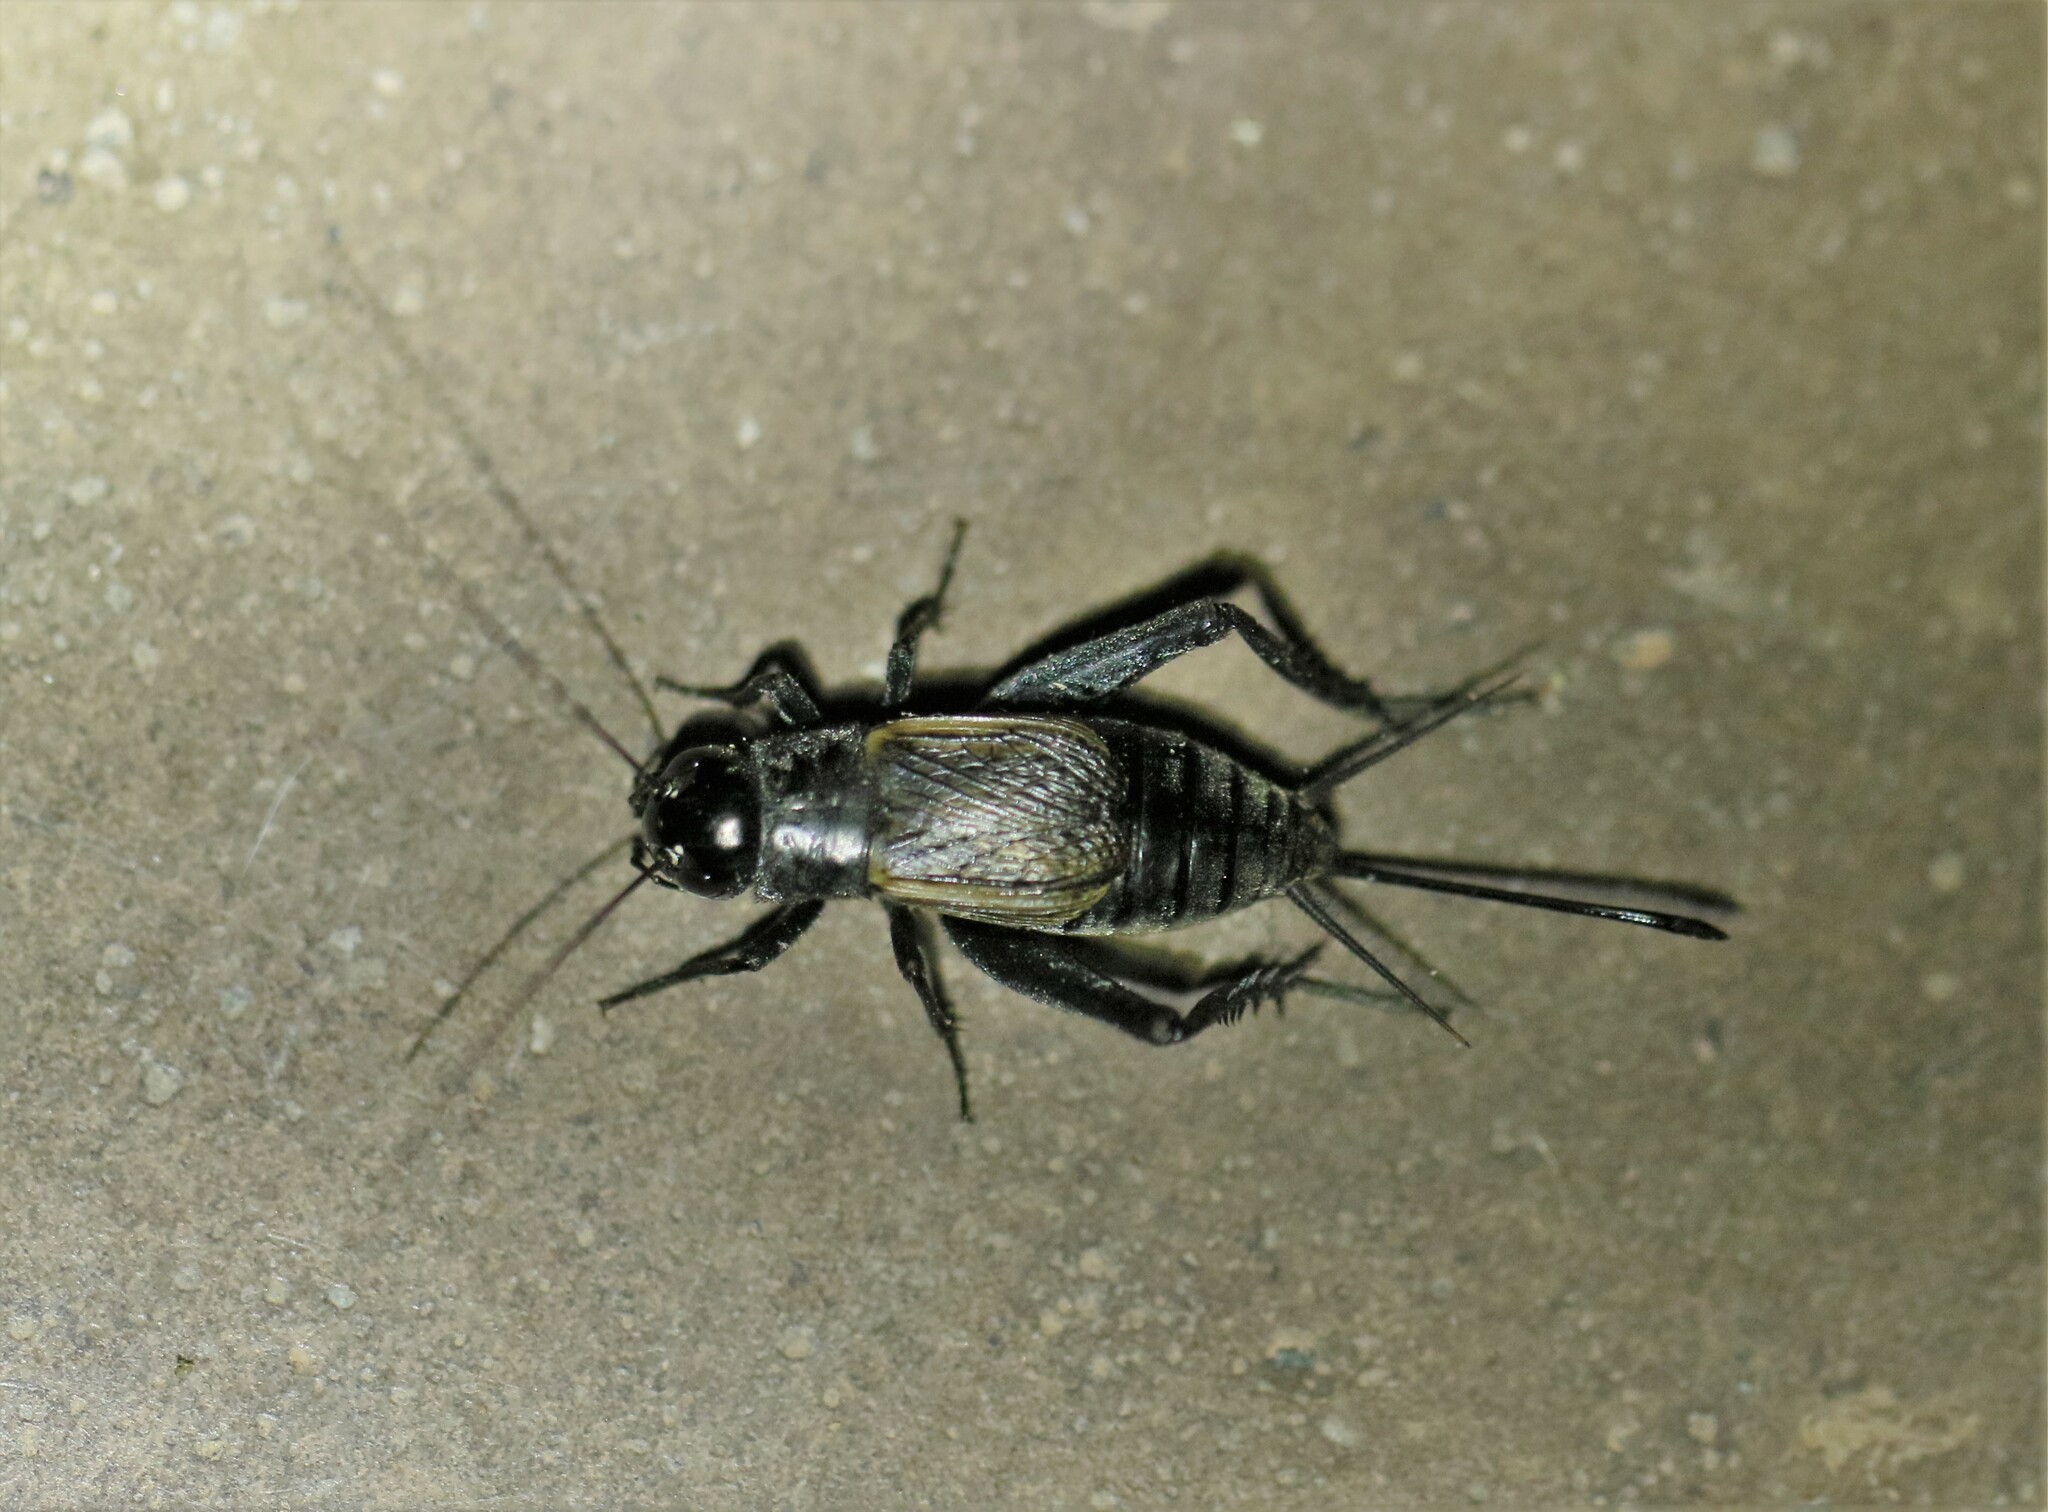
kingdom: Animalia
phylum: Arthropoda
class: Insecta
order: Orthoptera
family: Gryllidae
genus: Gryllus
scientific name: Gryllus pennsylvanicus
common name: Fall field cricket
